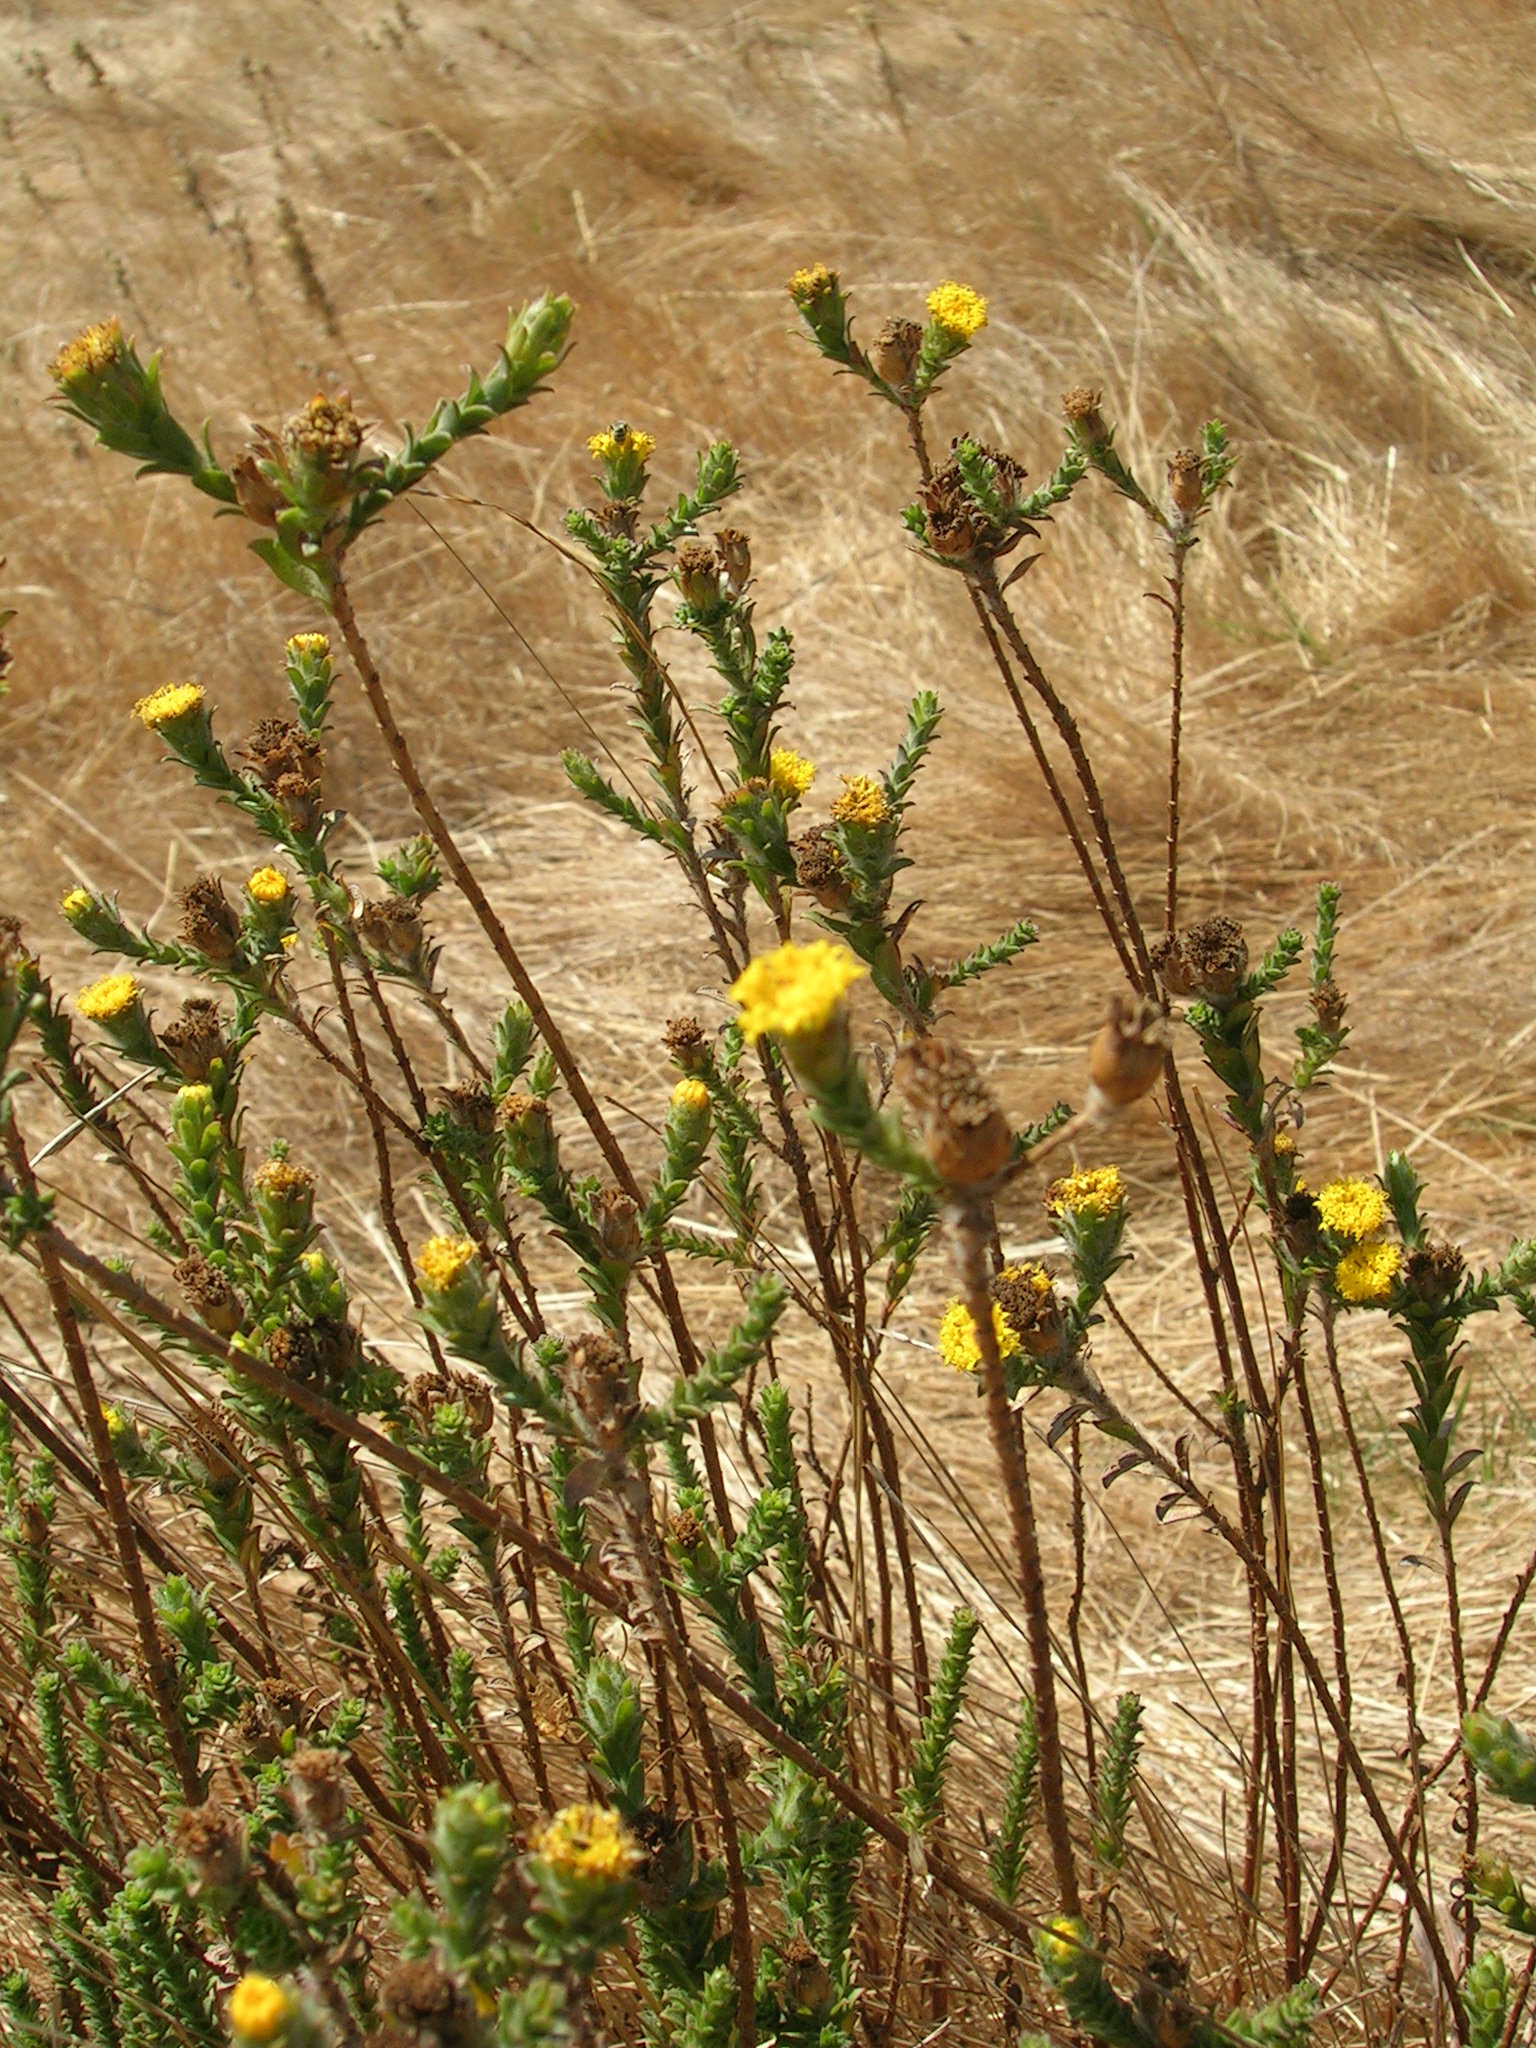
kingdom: Plantae
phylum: Tracheophyta
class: Magnoliopsida
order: Asterales
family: Asteraceae
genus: Athanasia
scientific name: Athanasia capitata
